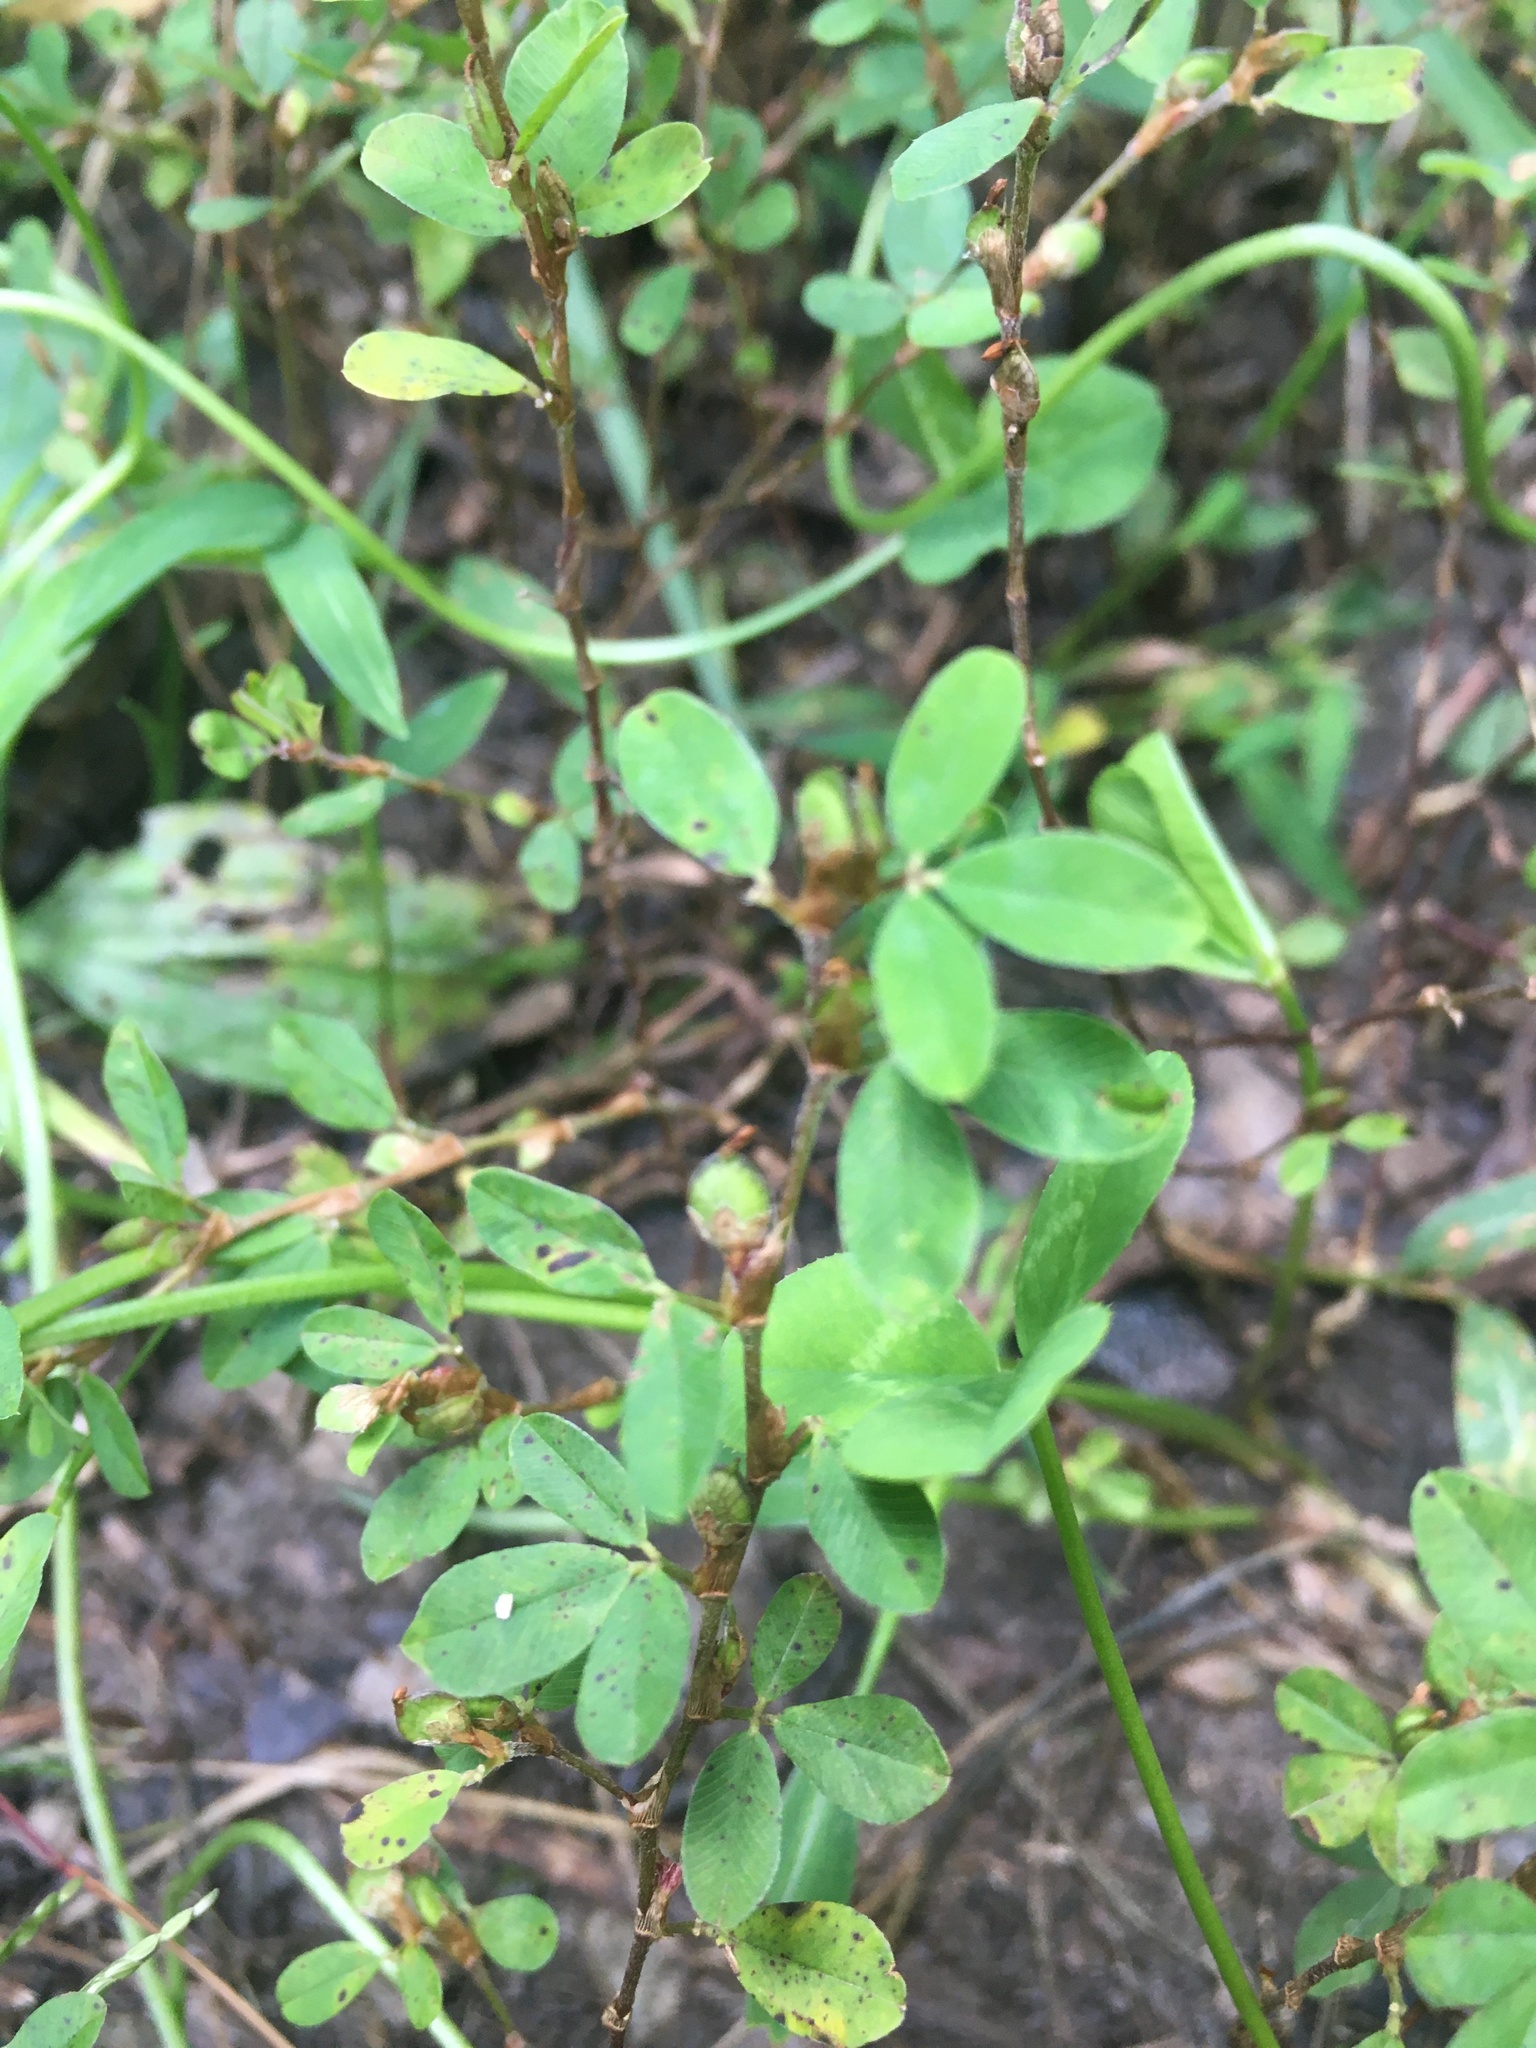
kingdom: Plantae
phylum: Tracheophyta
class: Magnoliopsida
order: Fabales
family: Fabaceae
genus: Kummerowia
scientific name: Kummerowia striata
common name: Japanese clover
